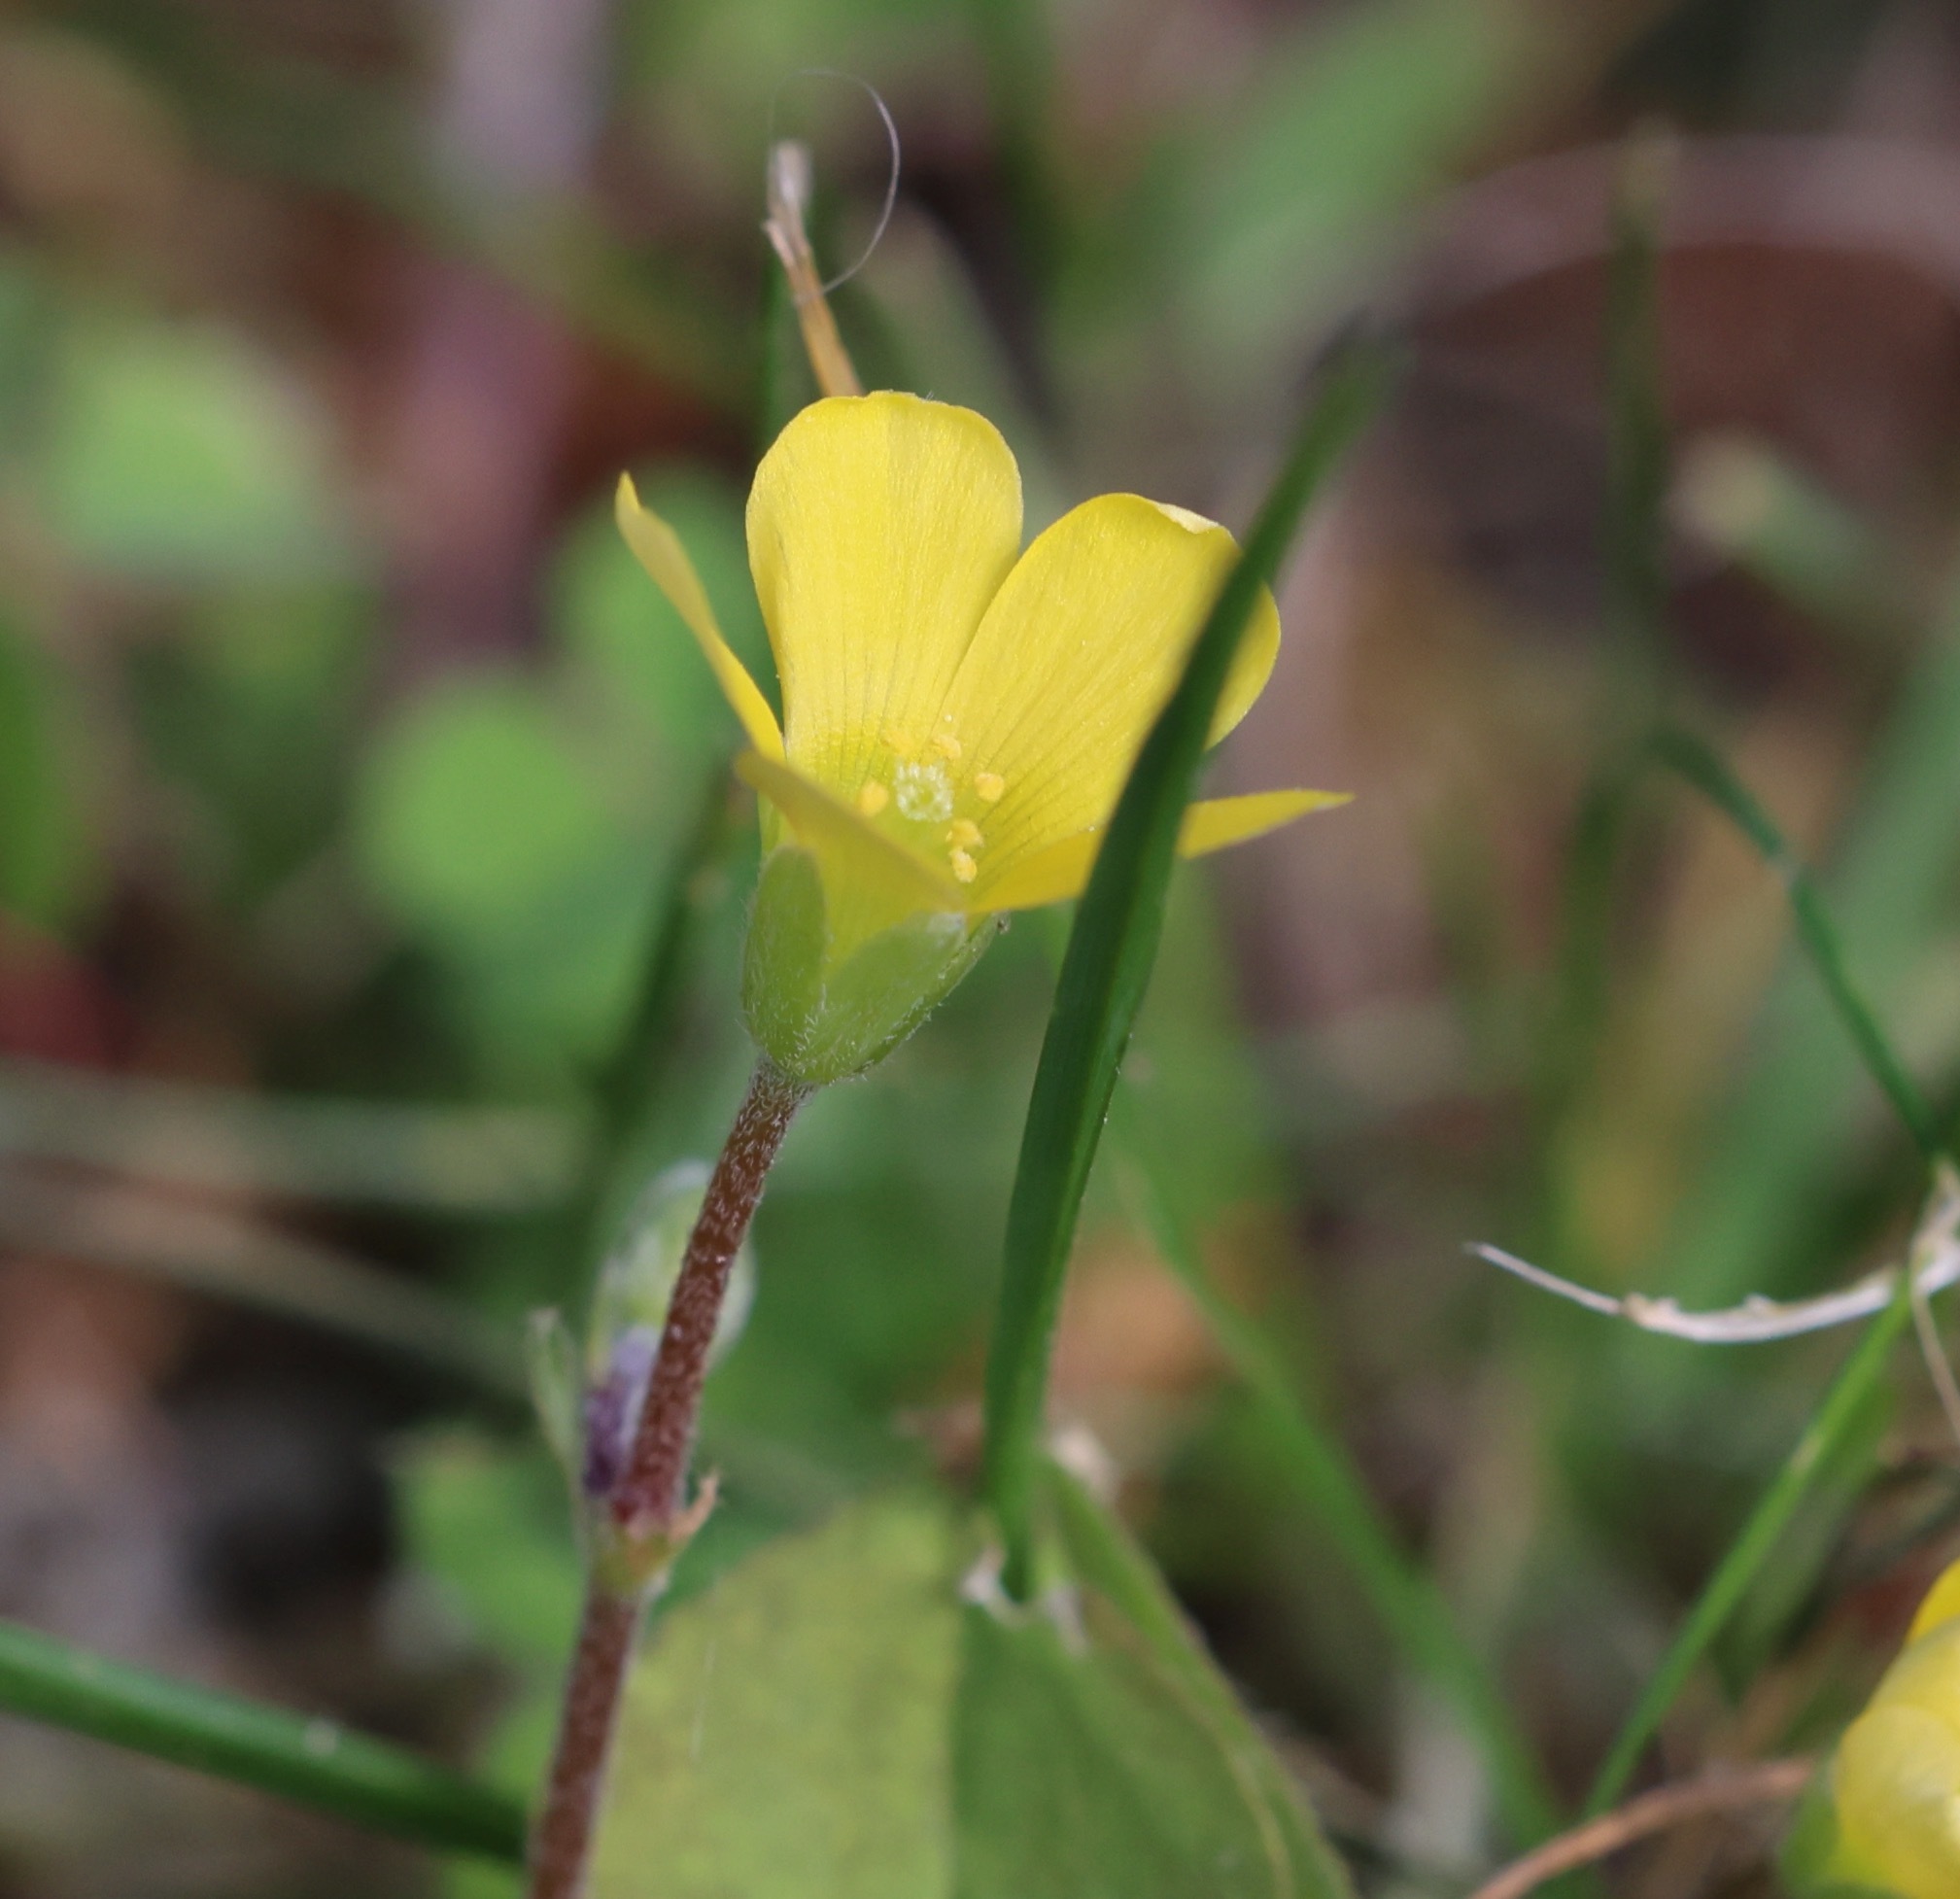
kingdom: Plantae
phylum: Tracheophyta
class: Magnoliopsida
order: Oxalidales
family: Oxalidaceae
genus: Oxalis
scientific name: Oxalis corniculata
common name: Procumbent yellow-sorrel
